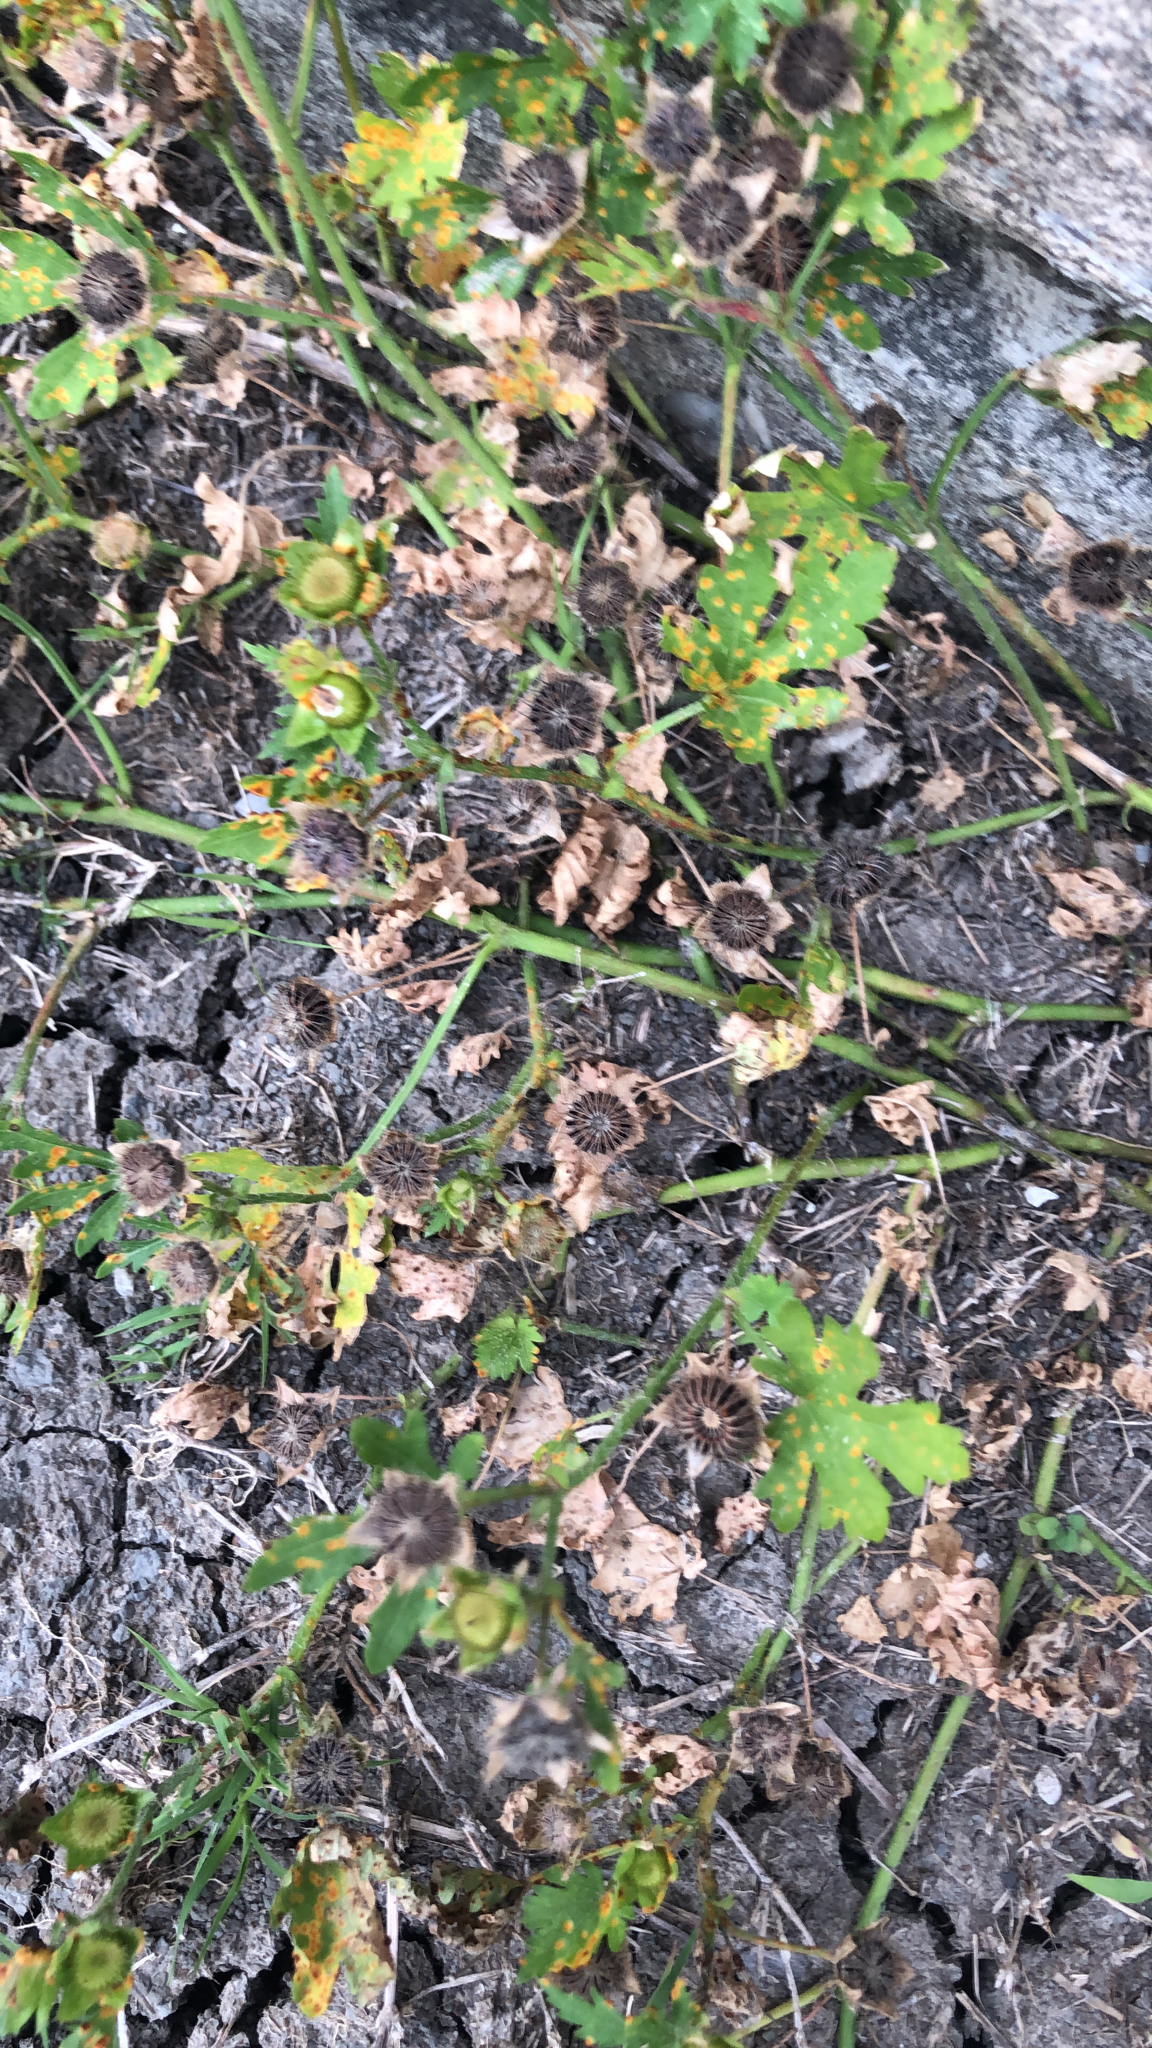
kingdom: Plantae
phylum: Tracheophyta
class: Magnoliopsida
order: Malvales
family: Malvaceae
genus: Modiola
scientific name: Modiola caroliniana
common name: Carolina bristlemallow
